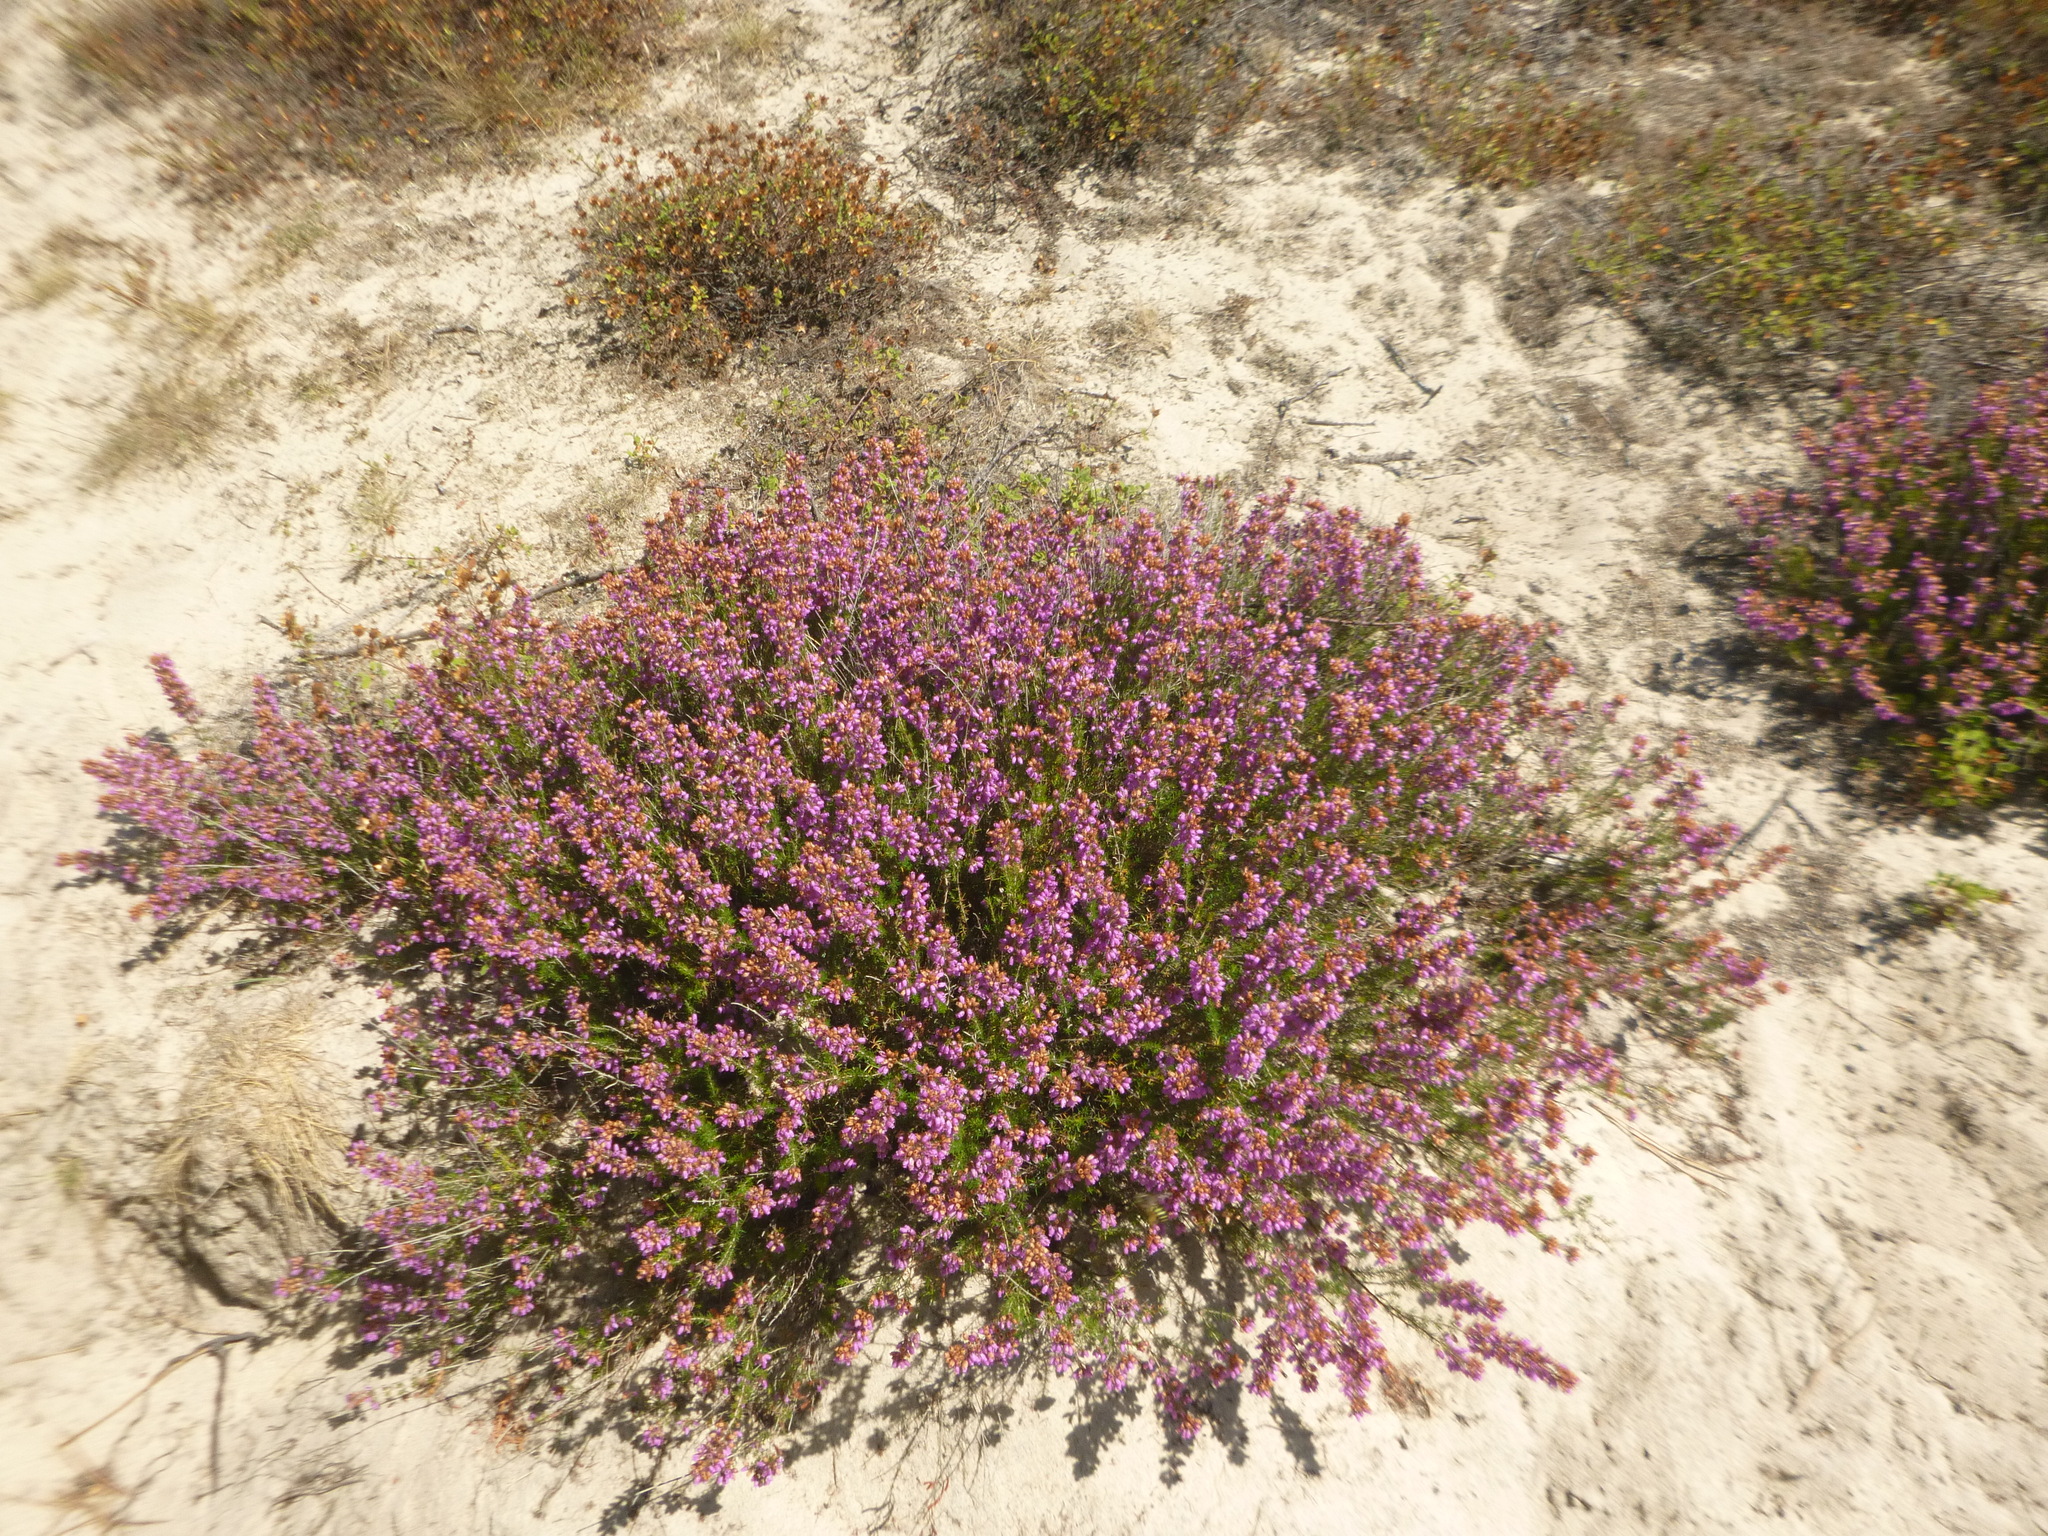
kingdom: Plantae
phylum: Tracheophyta
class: Magnoliopsida
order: Ericales
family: Ericaceae
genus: Erica
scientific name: Erica cinerea
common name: Bell heather
